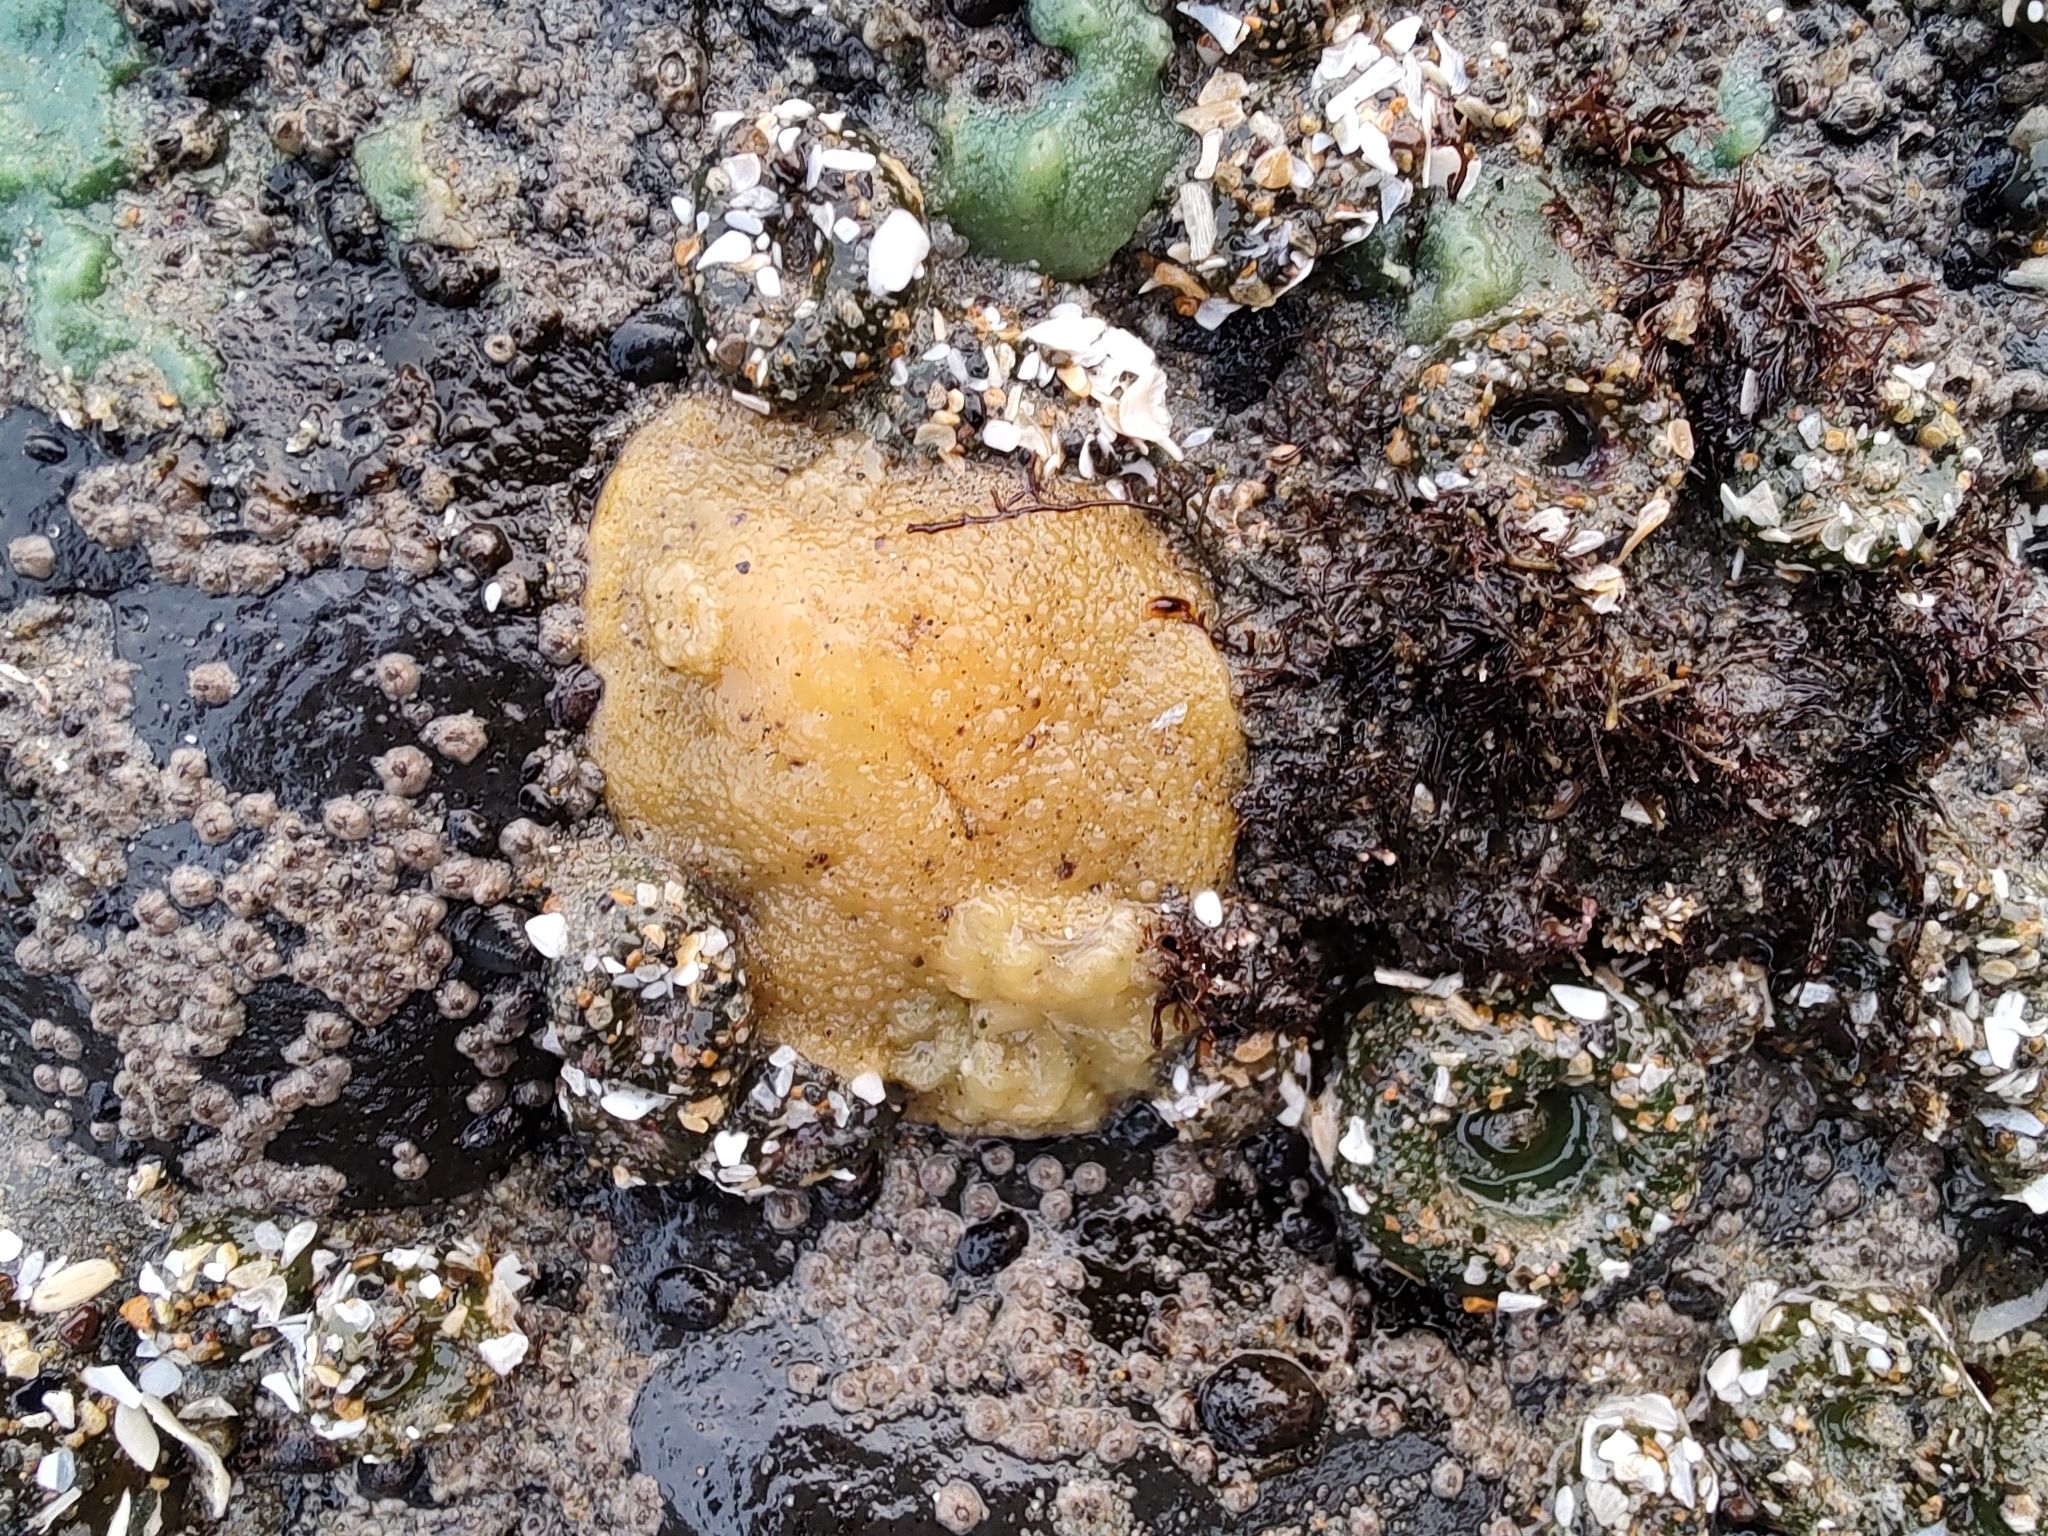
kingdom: Animalia
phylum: Mollusca
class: Gastropoda
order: Nudibranchia
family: Dorididae
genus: Doris
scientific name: Doris montereyensis
